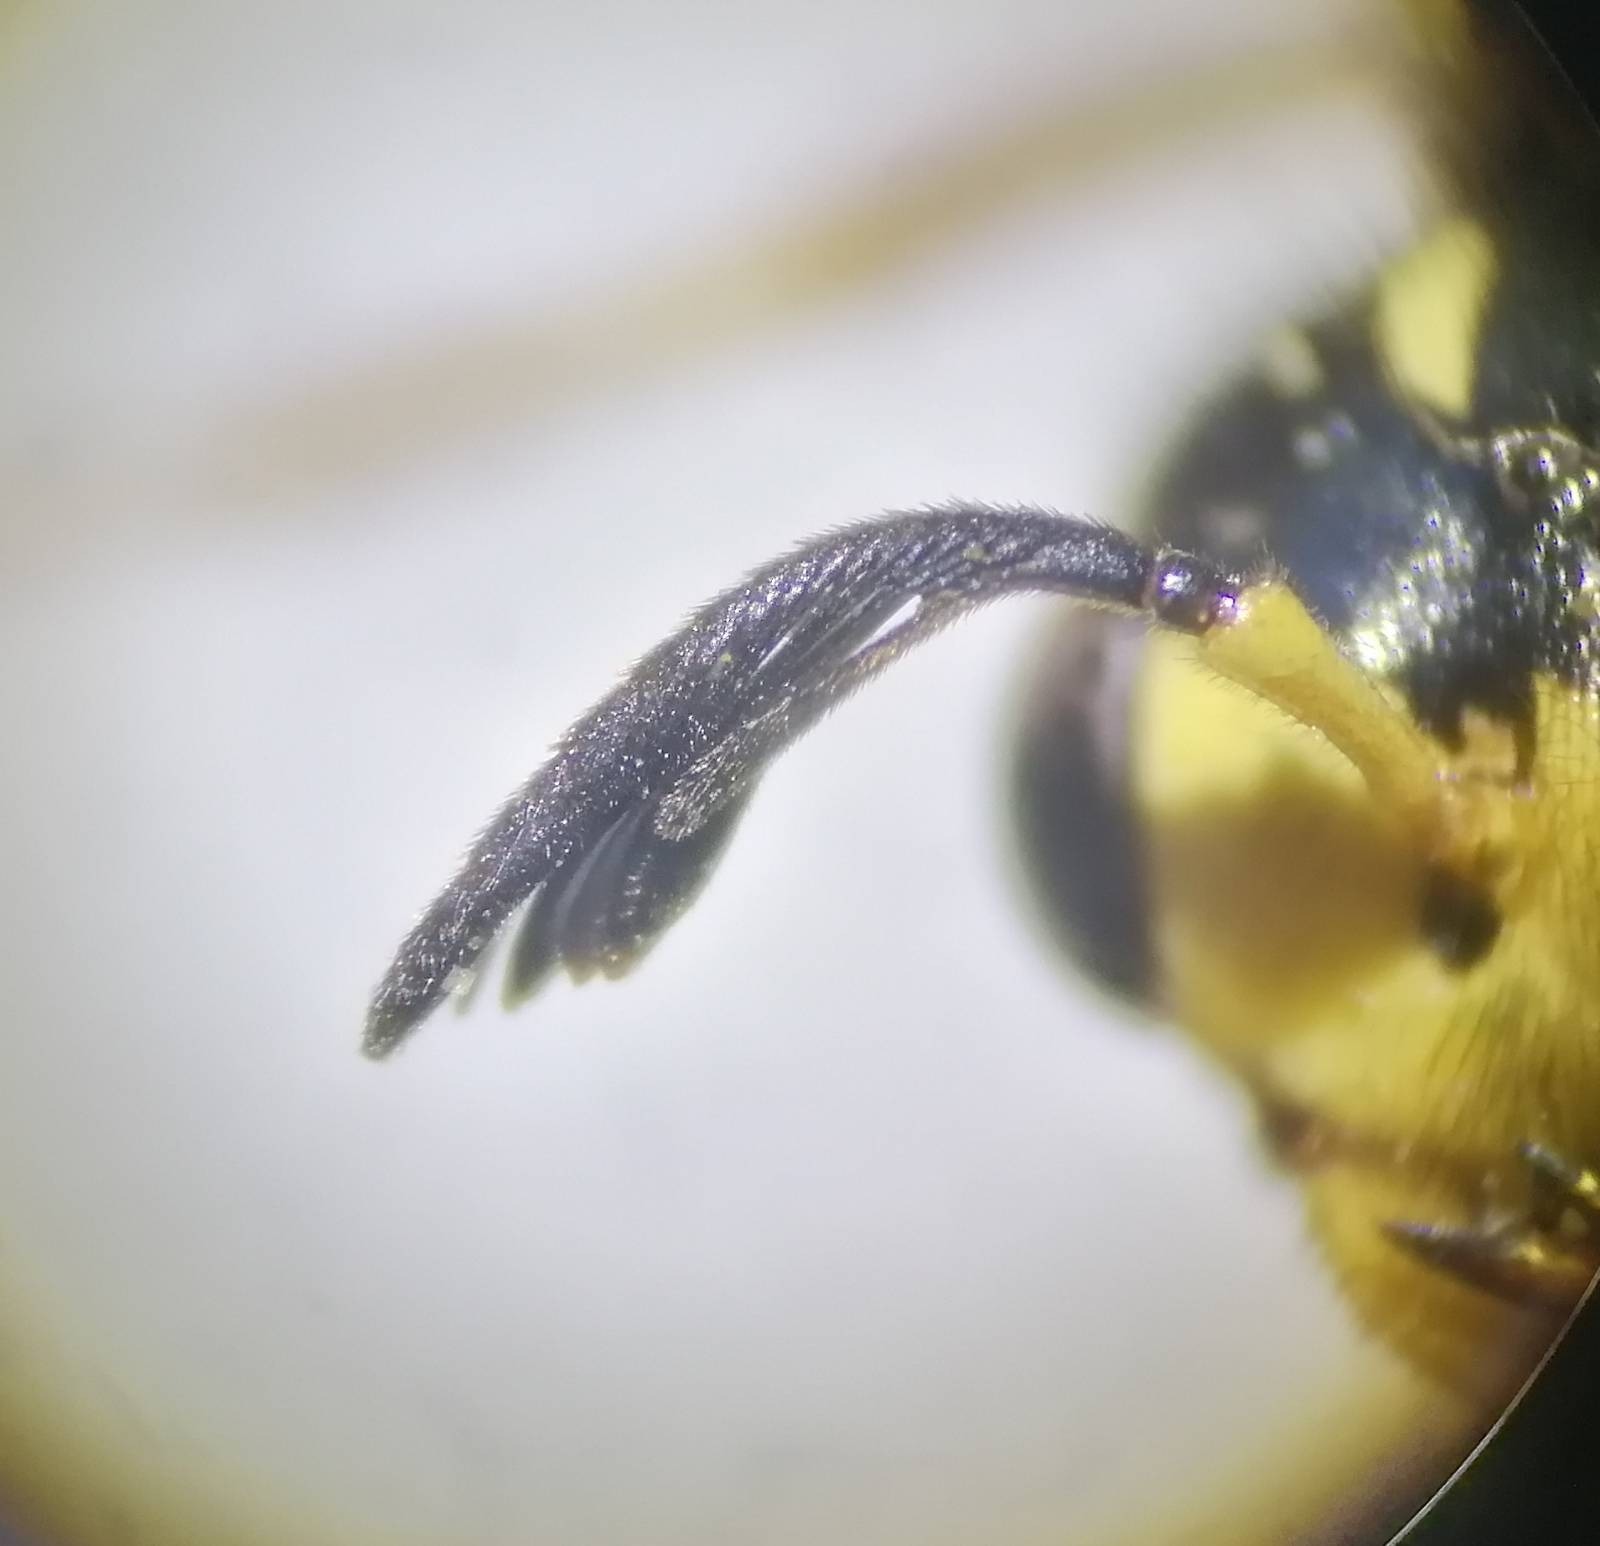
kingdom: Animalia
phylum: Arthropoda
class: Insecta
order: Hymenoptera
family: Megalodontesidae
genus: Megalodontes
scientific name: Megalodontes phaenicius
